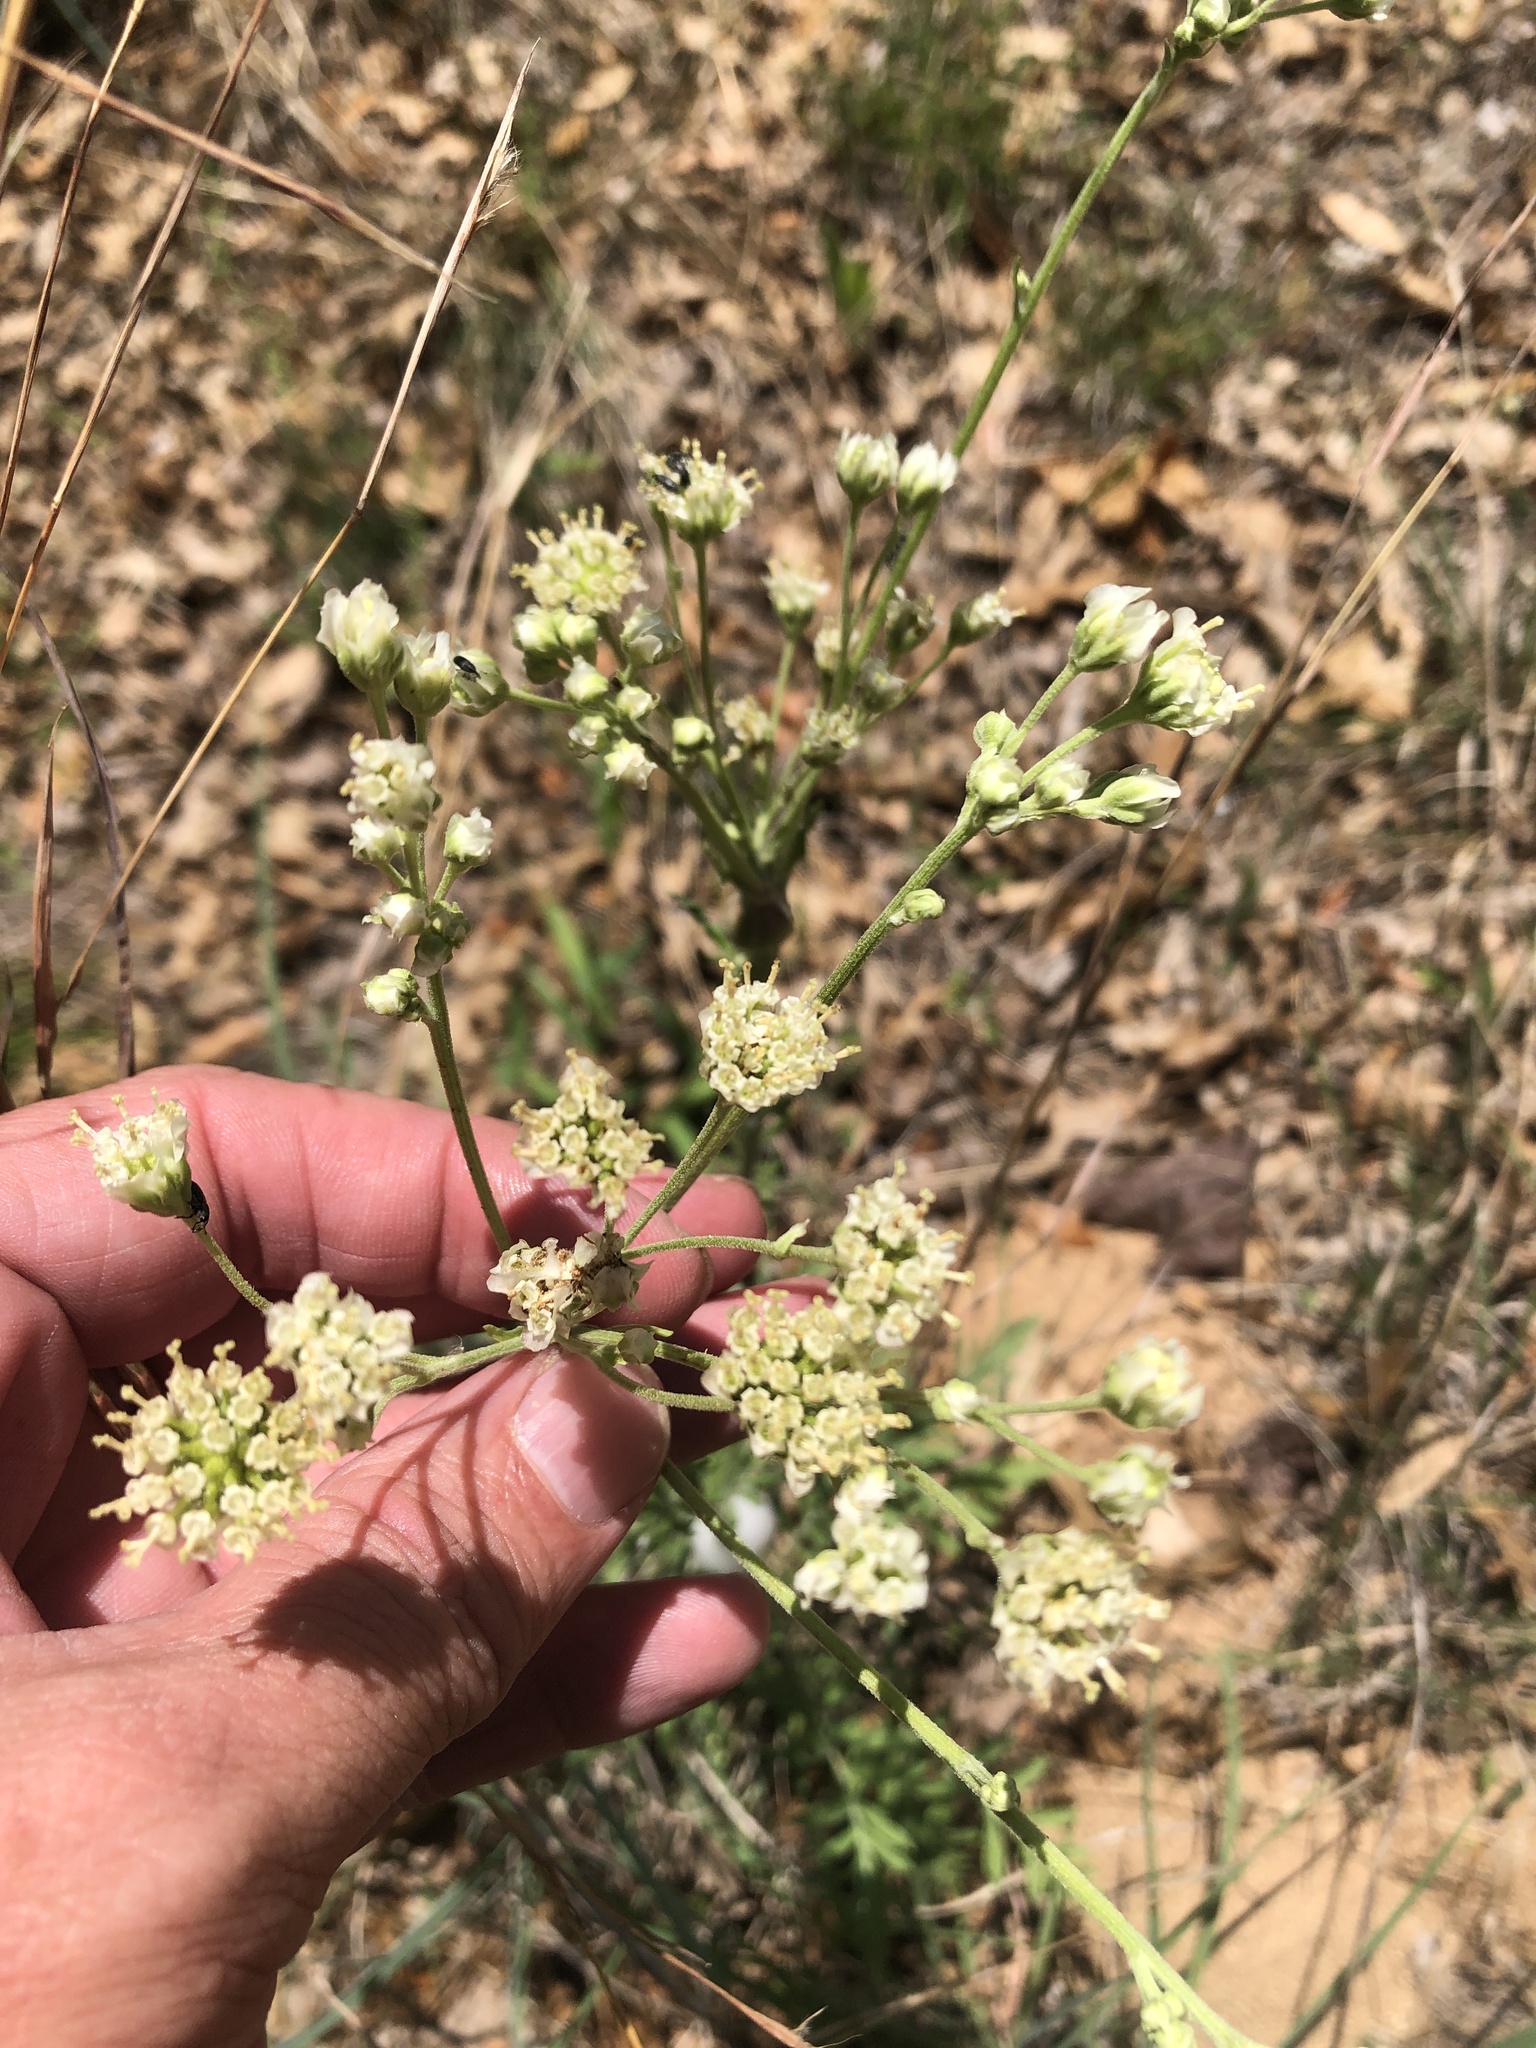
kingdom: Plantae
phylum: Tracheophyta
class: Magnoliopsida
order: Asterales
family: Asteraceae
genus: Hymenopappus
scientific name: Hymenopappus scabiosaeus
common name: Carolina woollywhite
